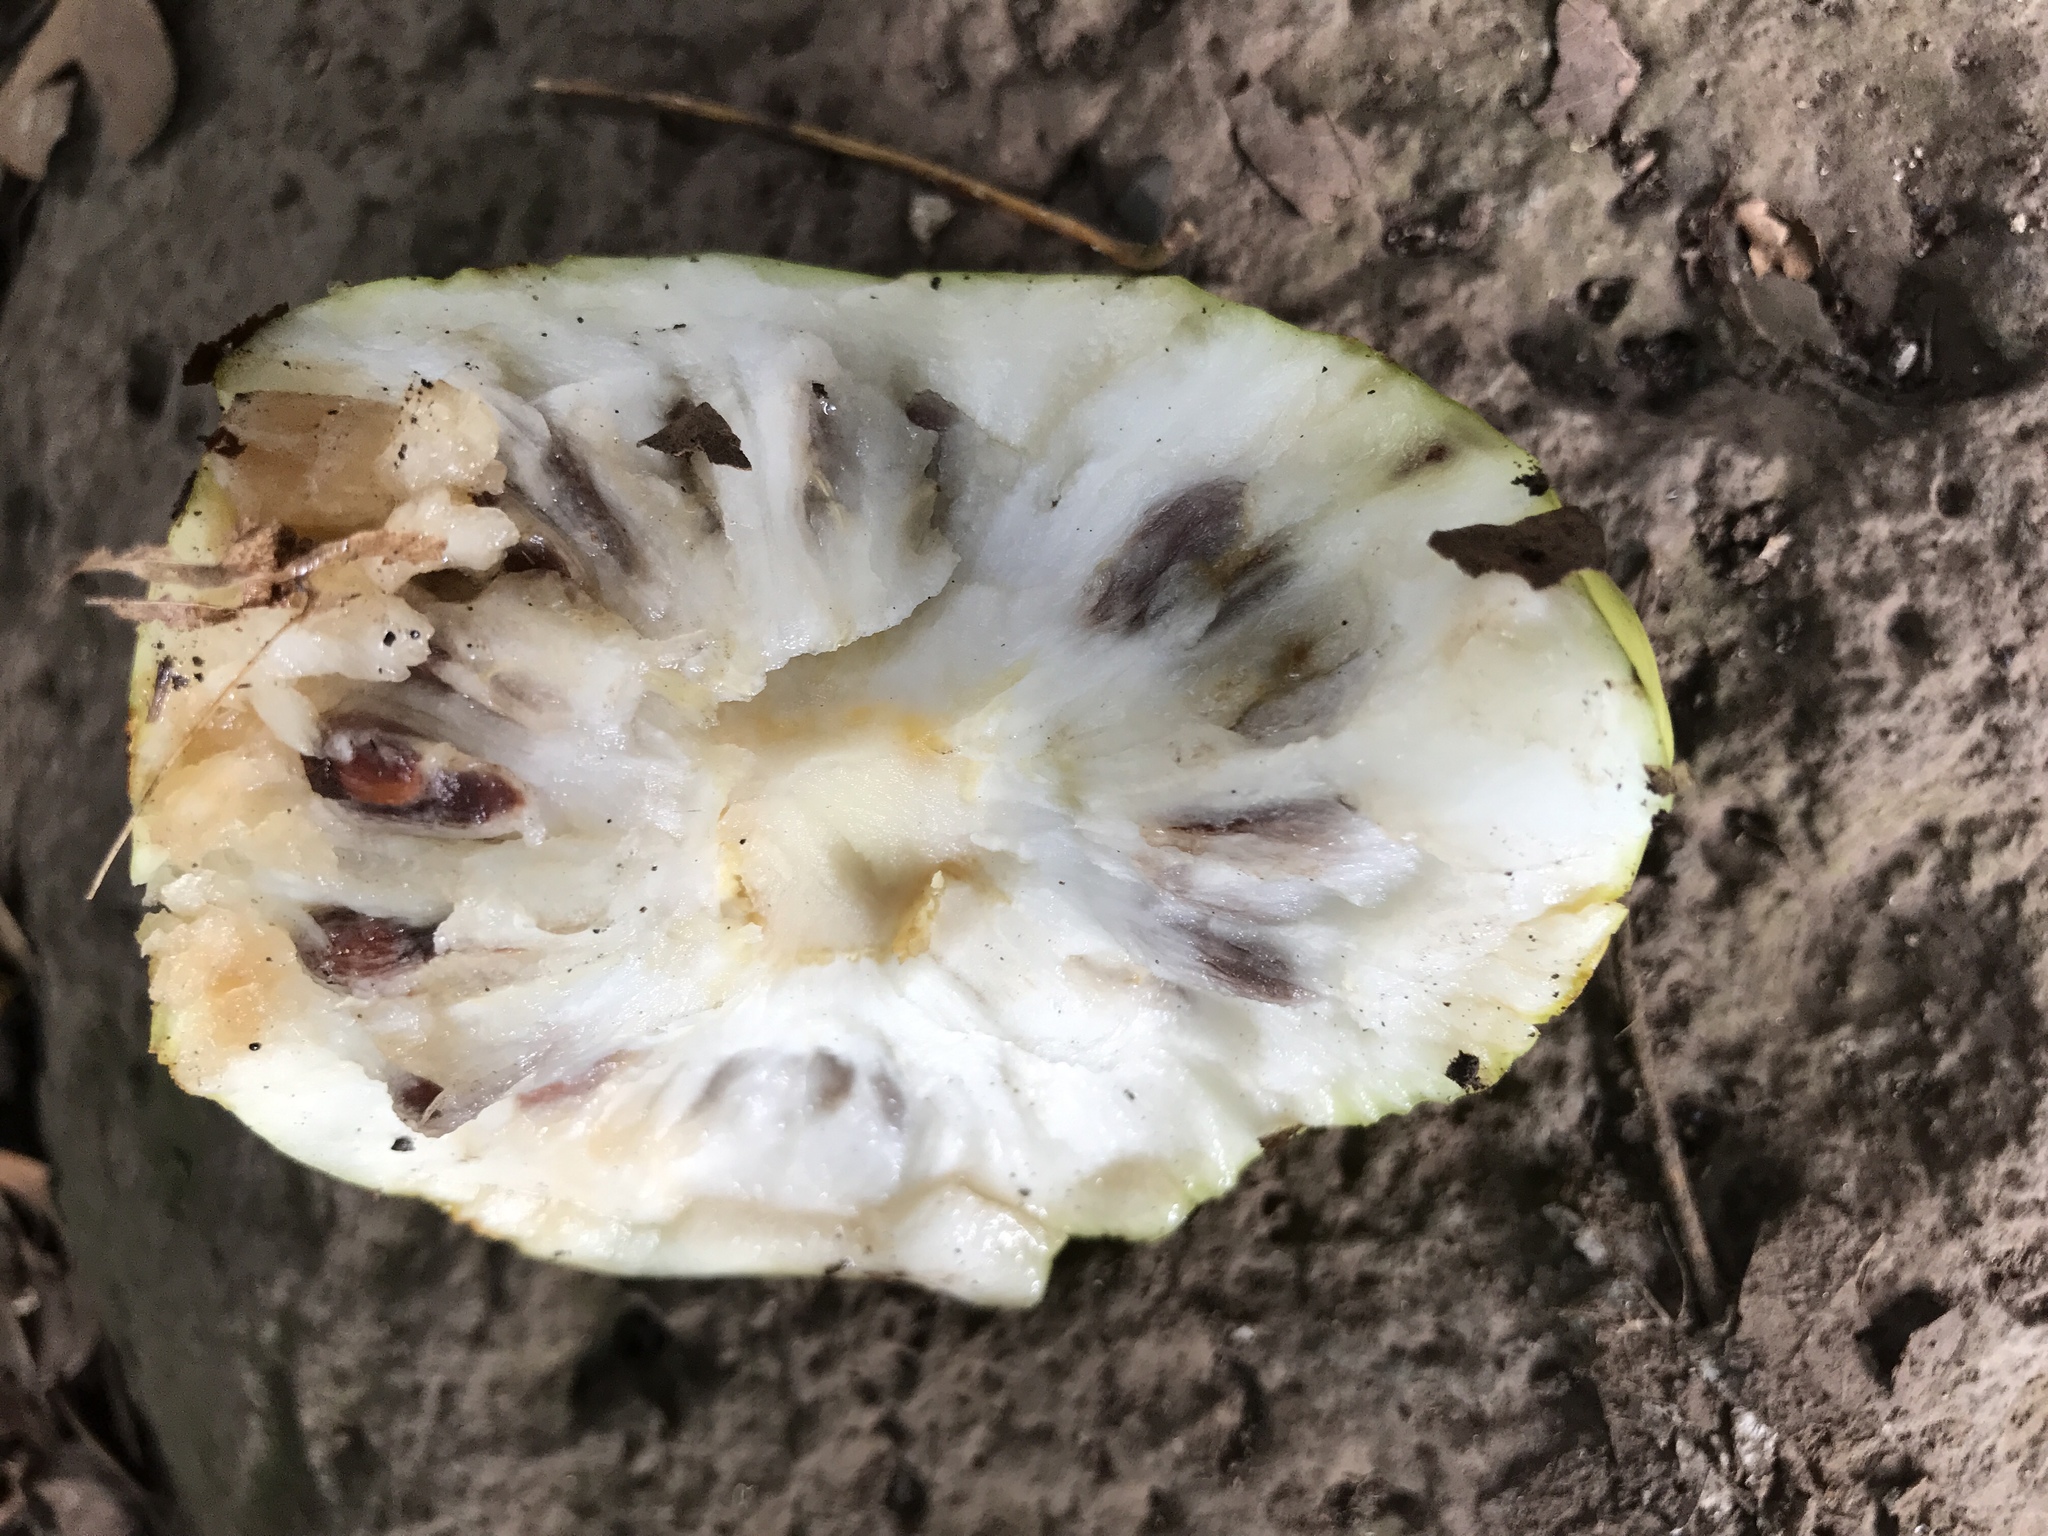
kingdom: Plantae
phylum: Tracheophyta
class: Magnoliopsida
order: Gentianales
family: Rubiaceae
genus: Morinda
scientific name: Morinda citrifolia
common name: Indian-mulberry
